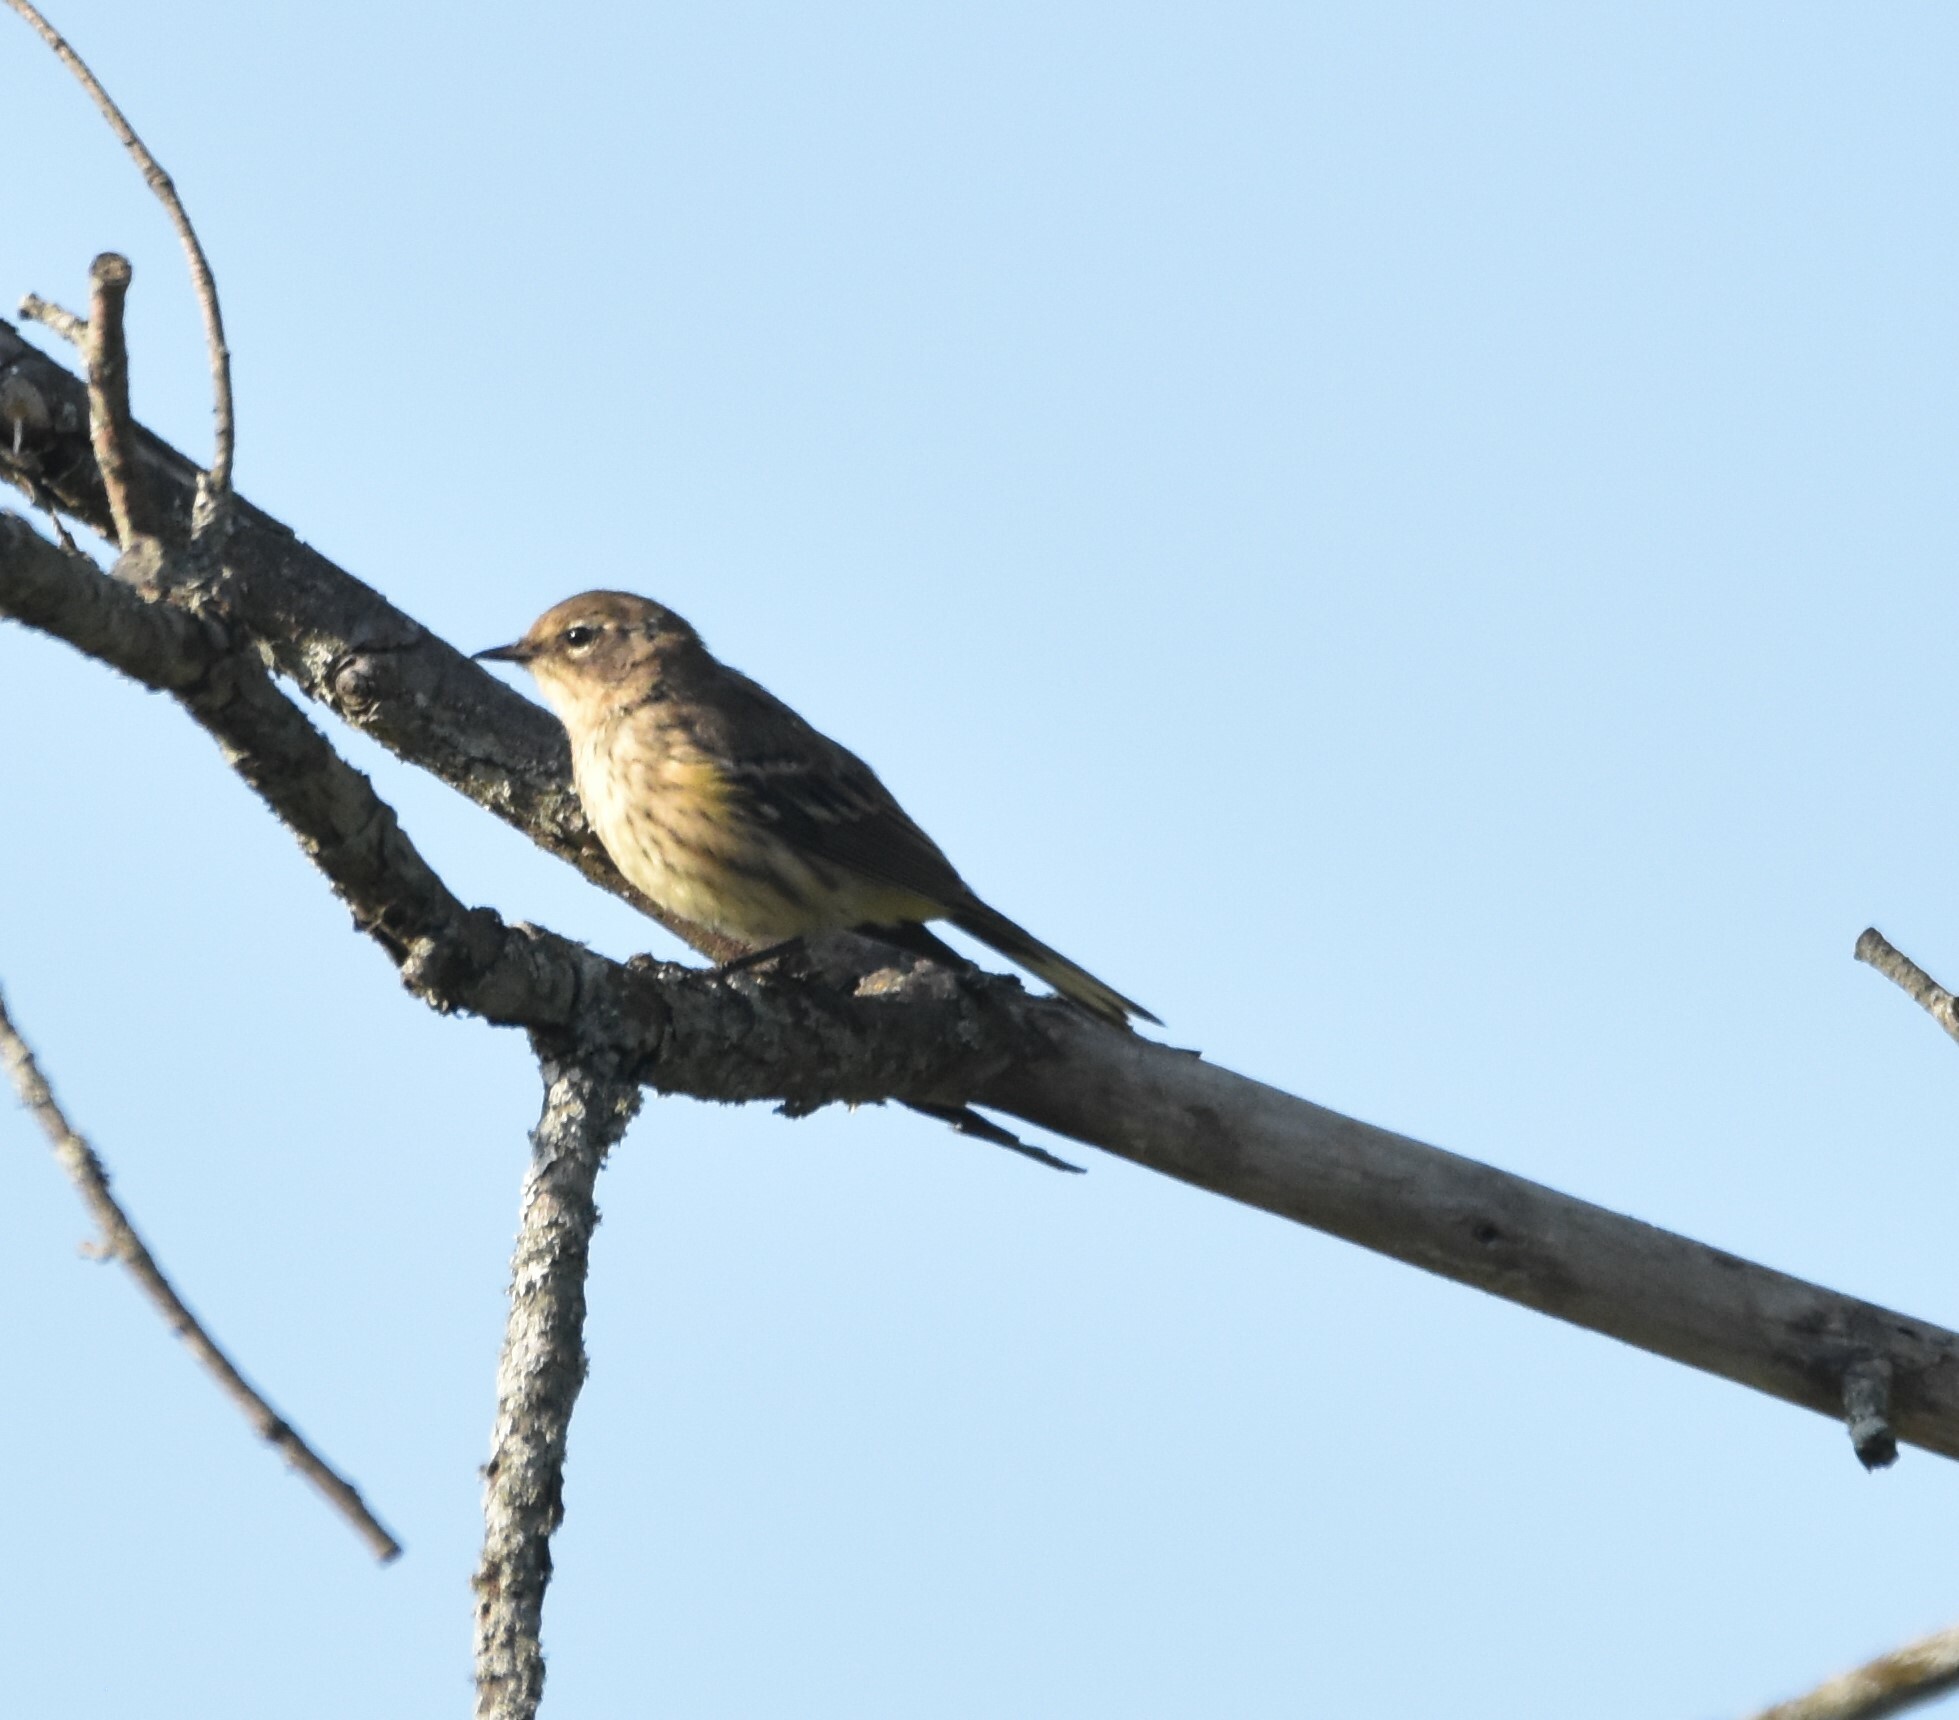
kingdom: Animalia
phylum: Chordata
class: Aves
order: Passeriformes
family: Parulidae
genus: Setophaga
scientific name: Setophaga coronata
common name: Myrtle warbler
